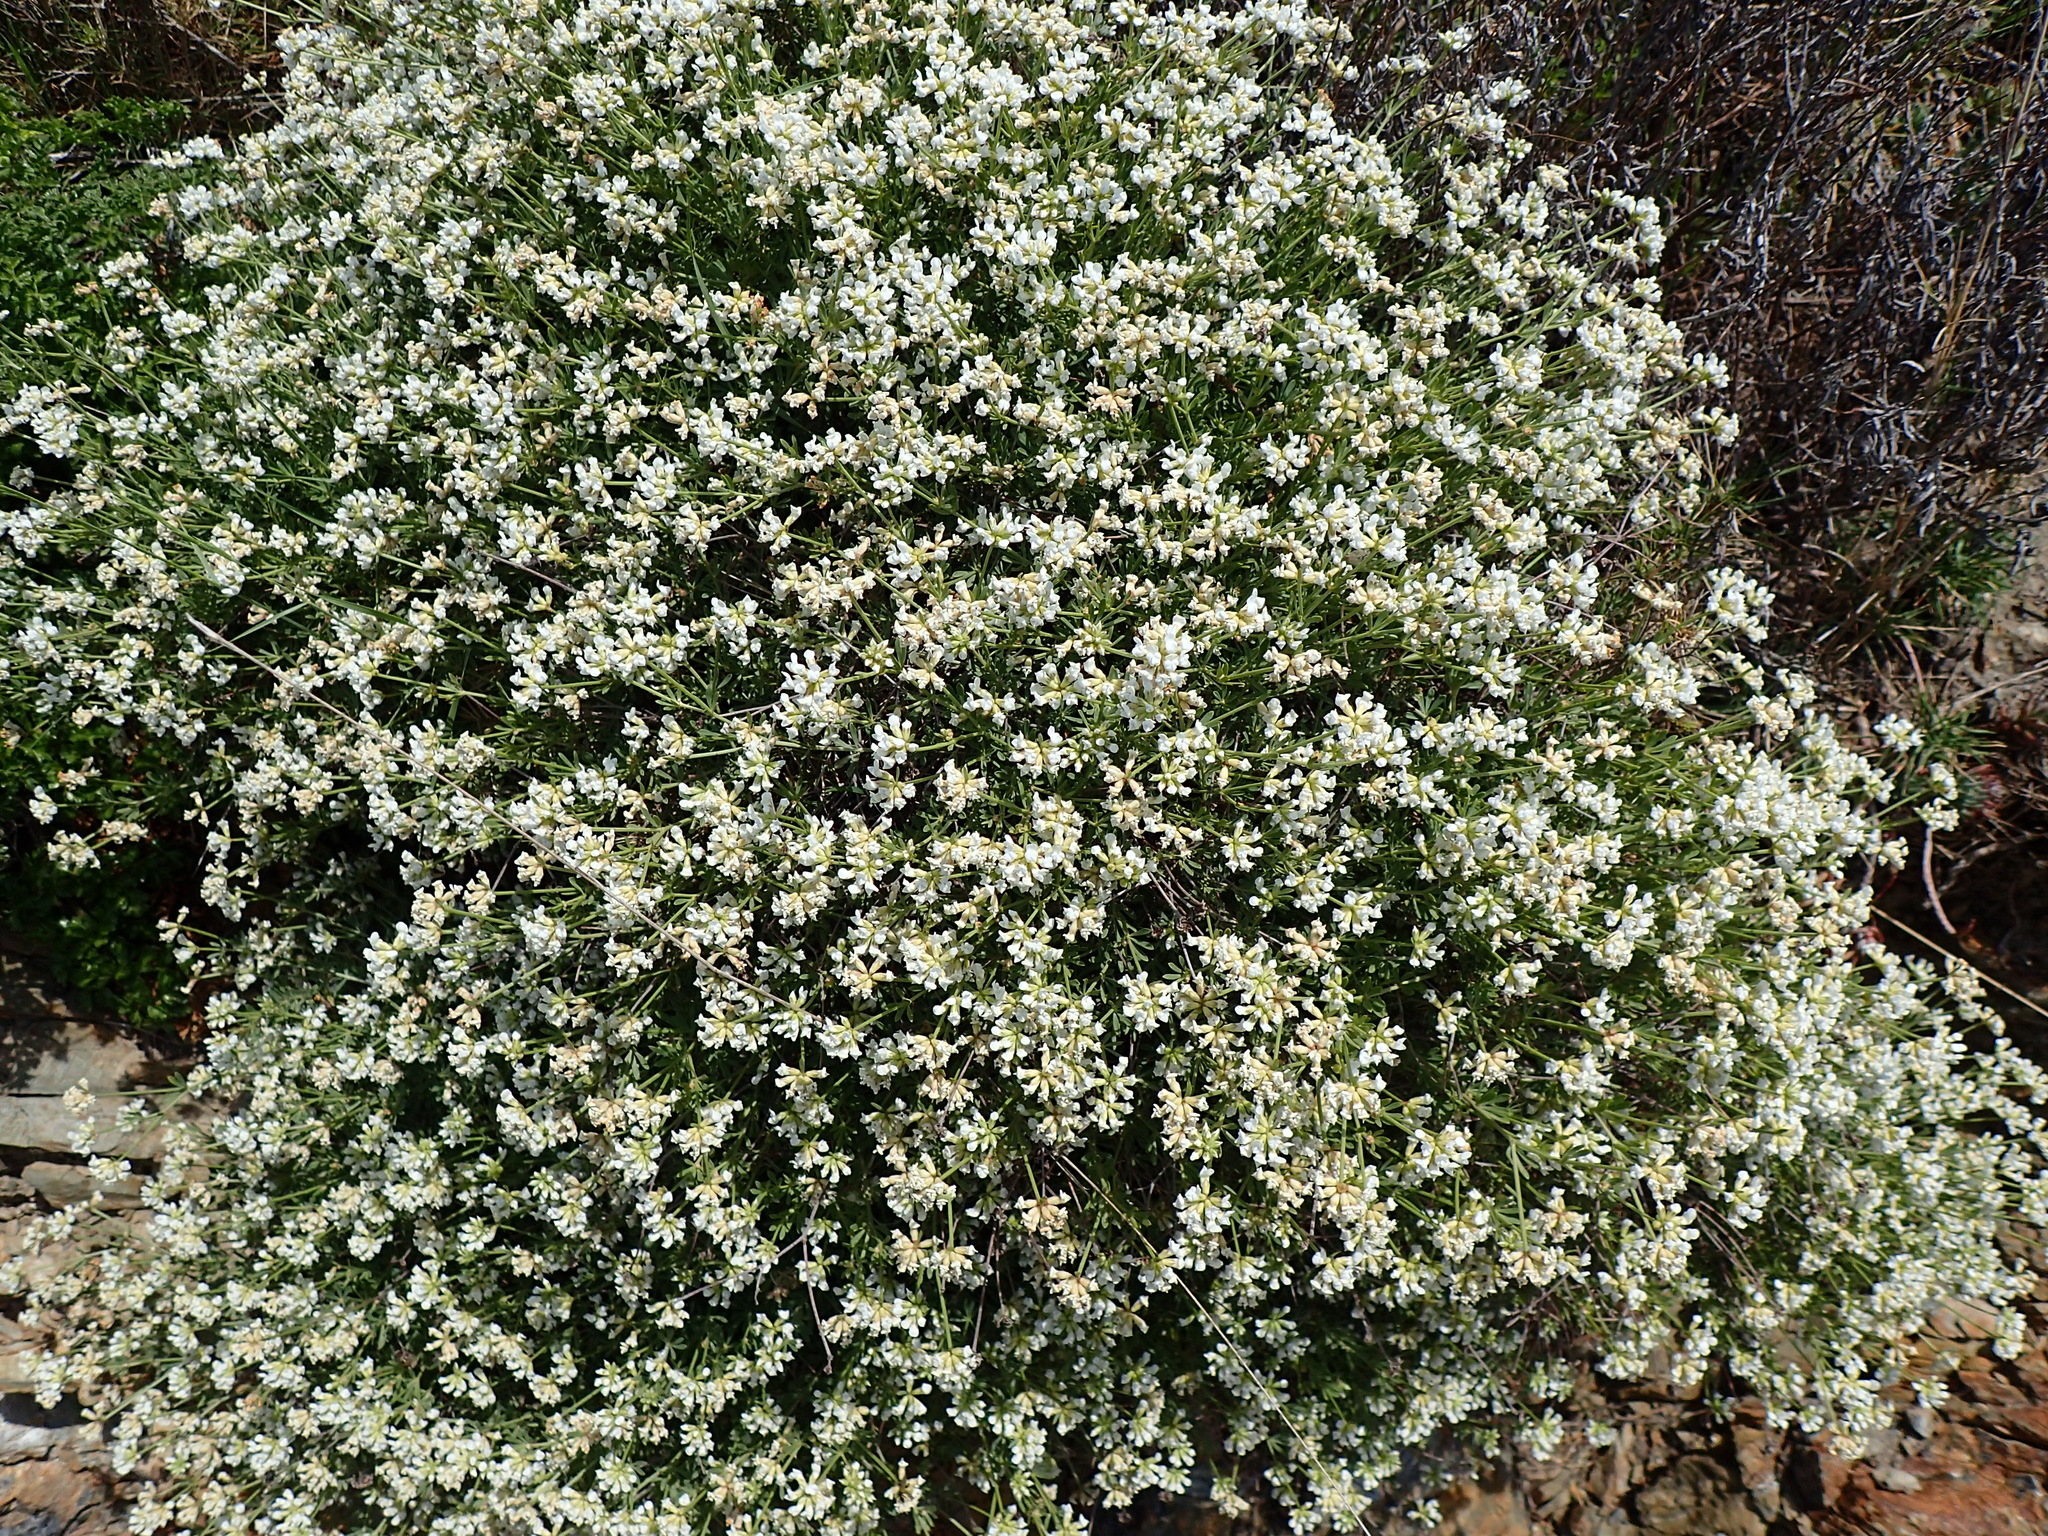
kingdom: Plantae
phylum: Tracheophyta
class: Magnoliopsida
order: Fabales
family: Fabaceae
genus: Lotus
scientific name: Lotus dorycnium
